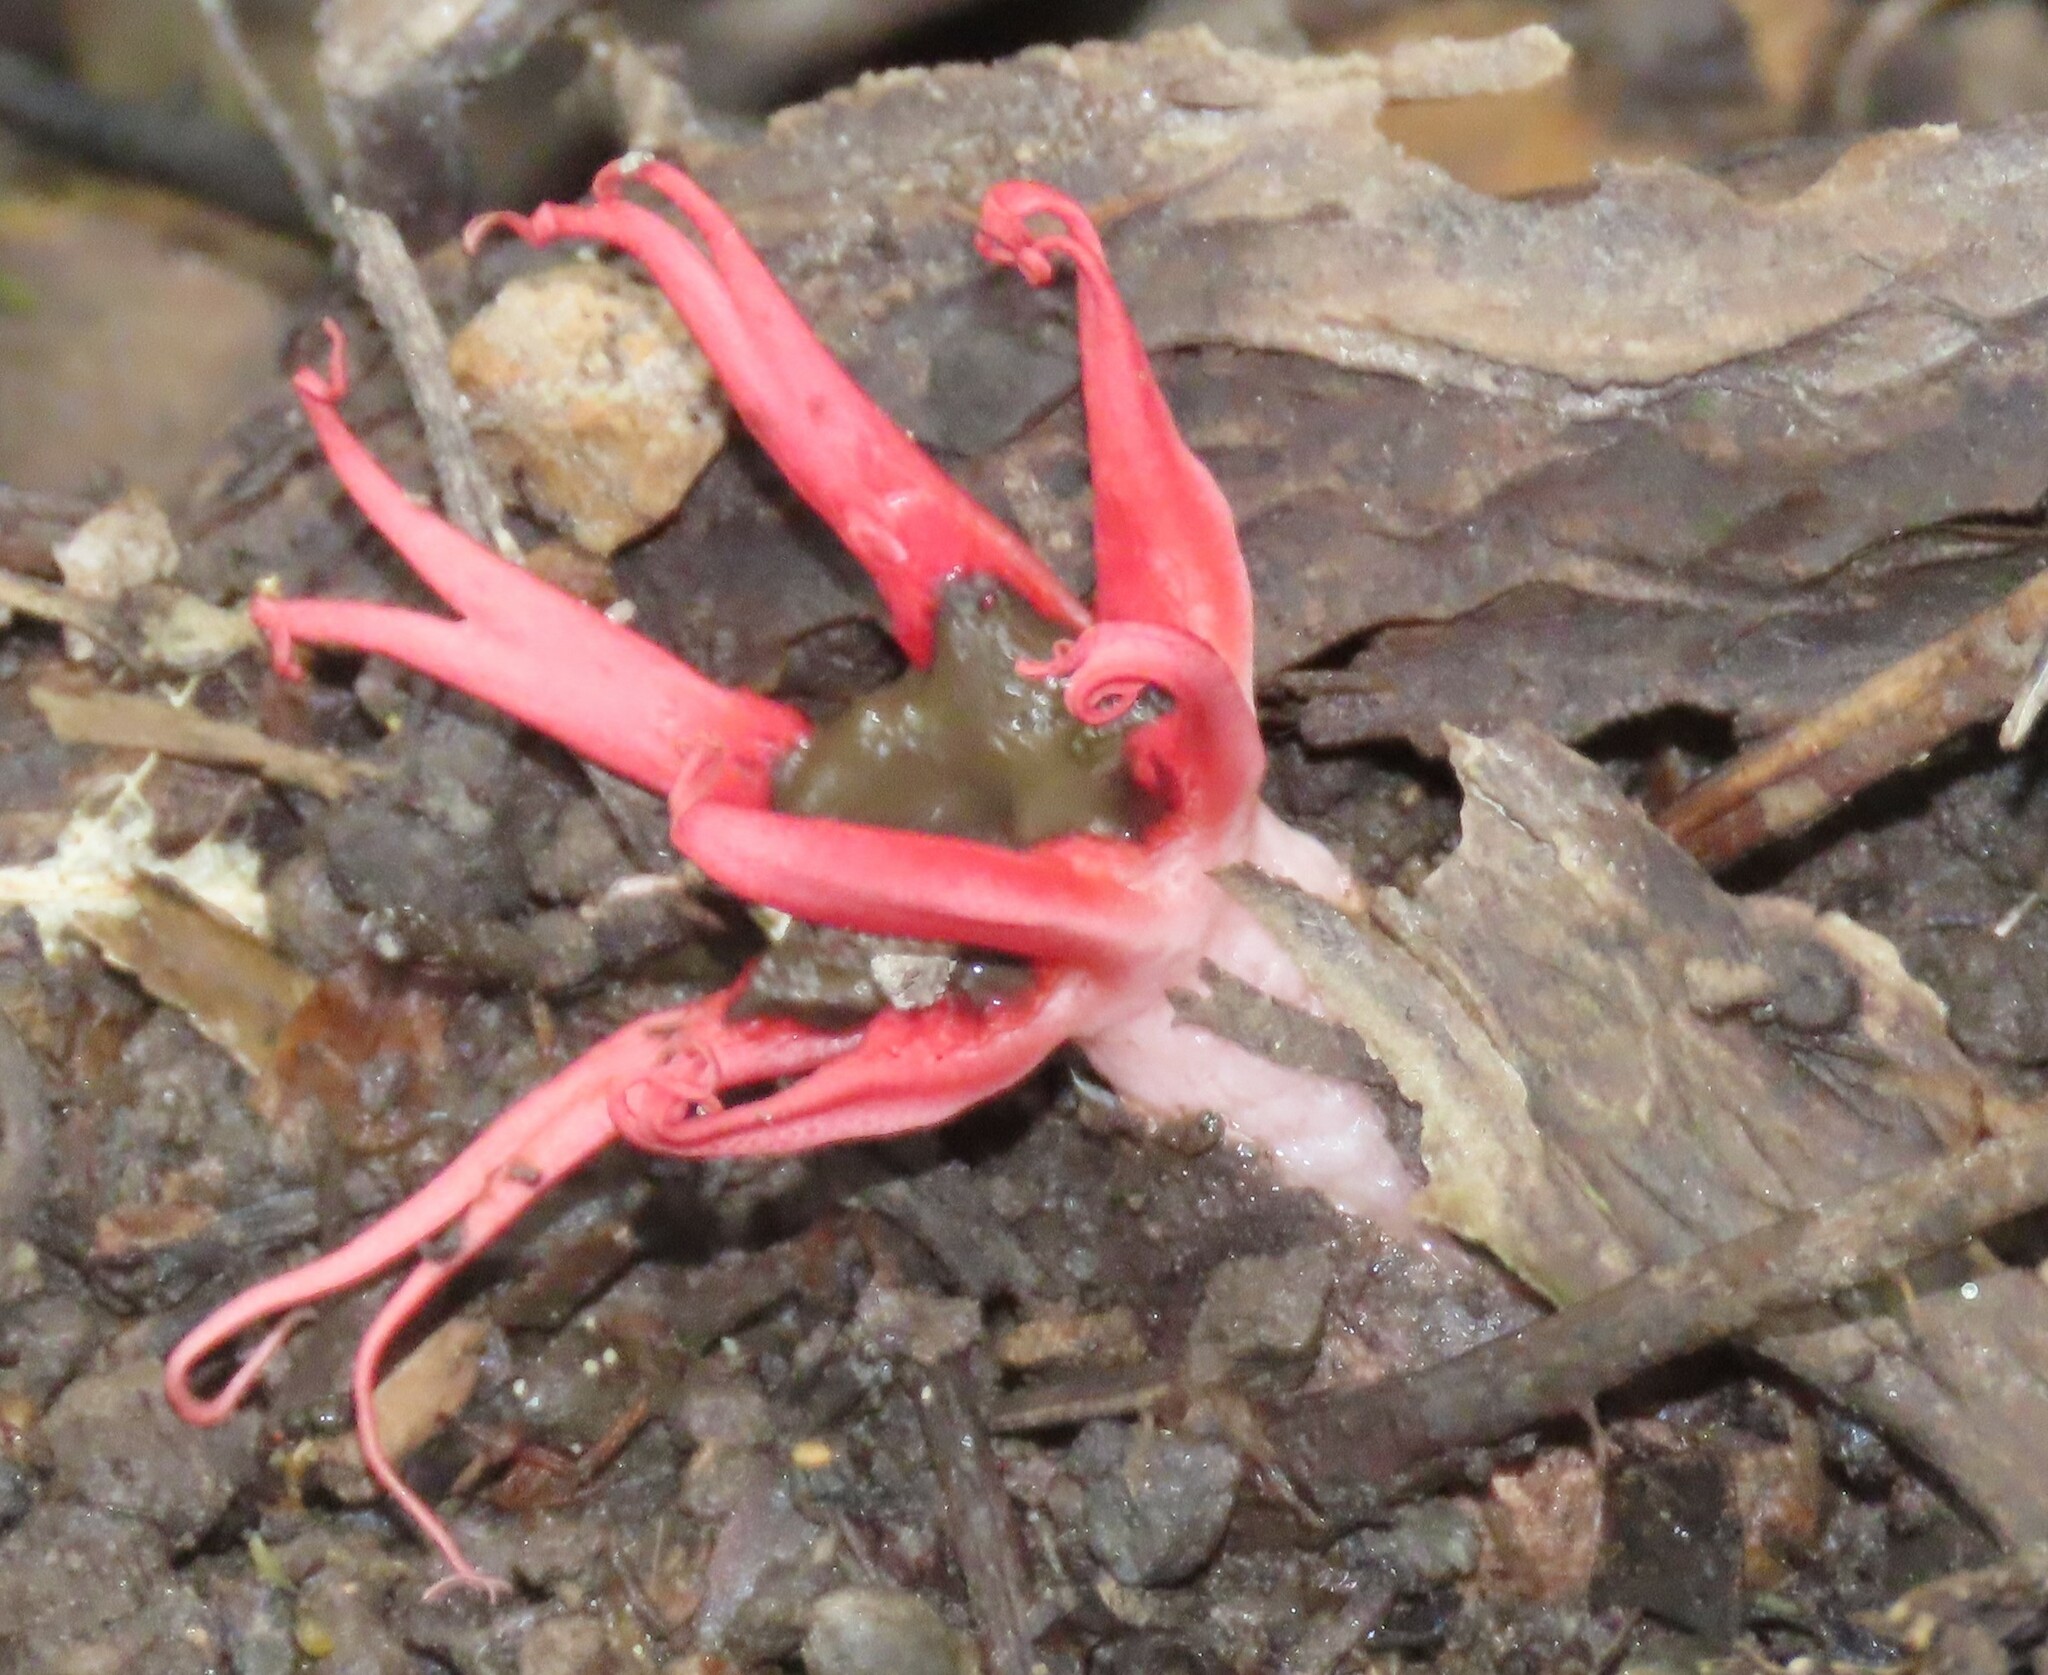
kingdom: Fungi
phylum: Basidiomycota
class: Agaricomycetes
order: Phallales
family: Phallaceae
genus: Aseroe
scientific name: Aseroe rubra
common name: Starfish fungus
